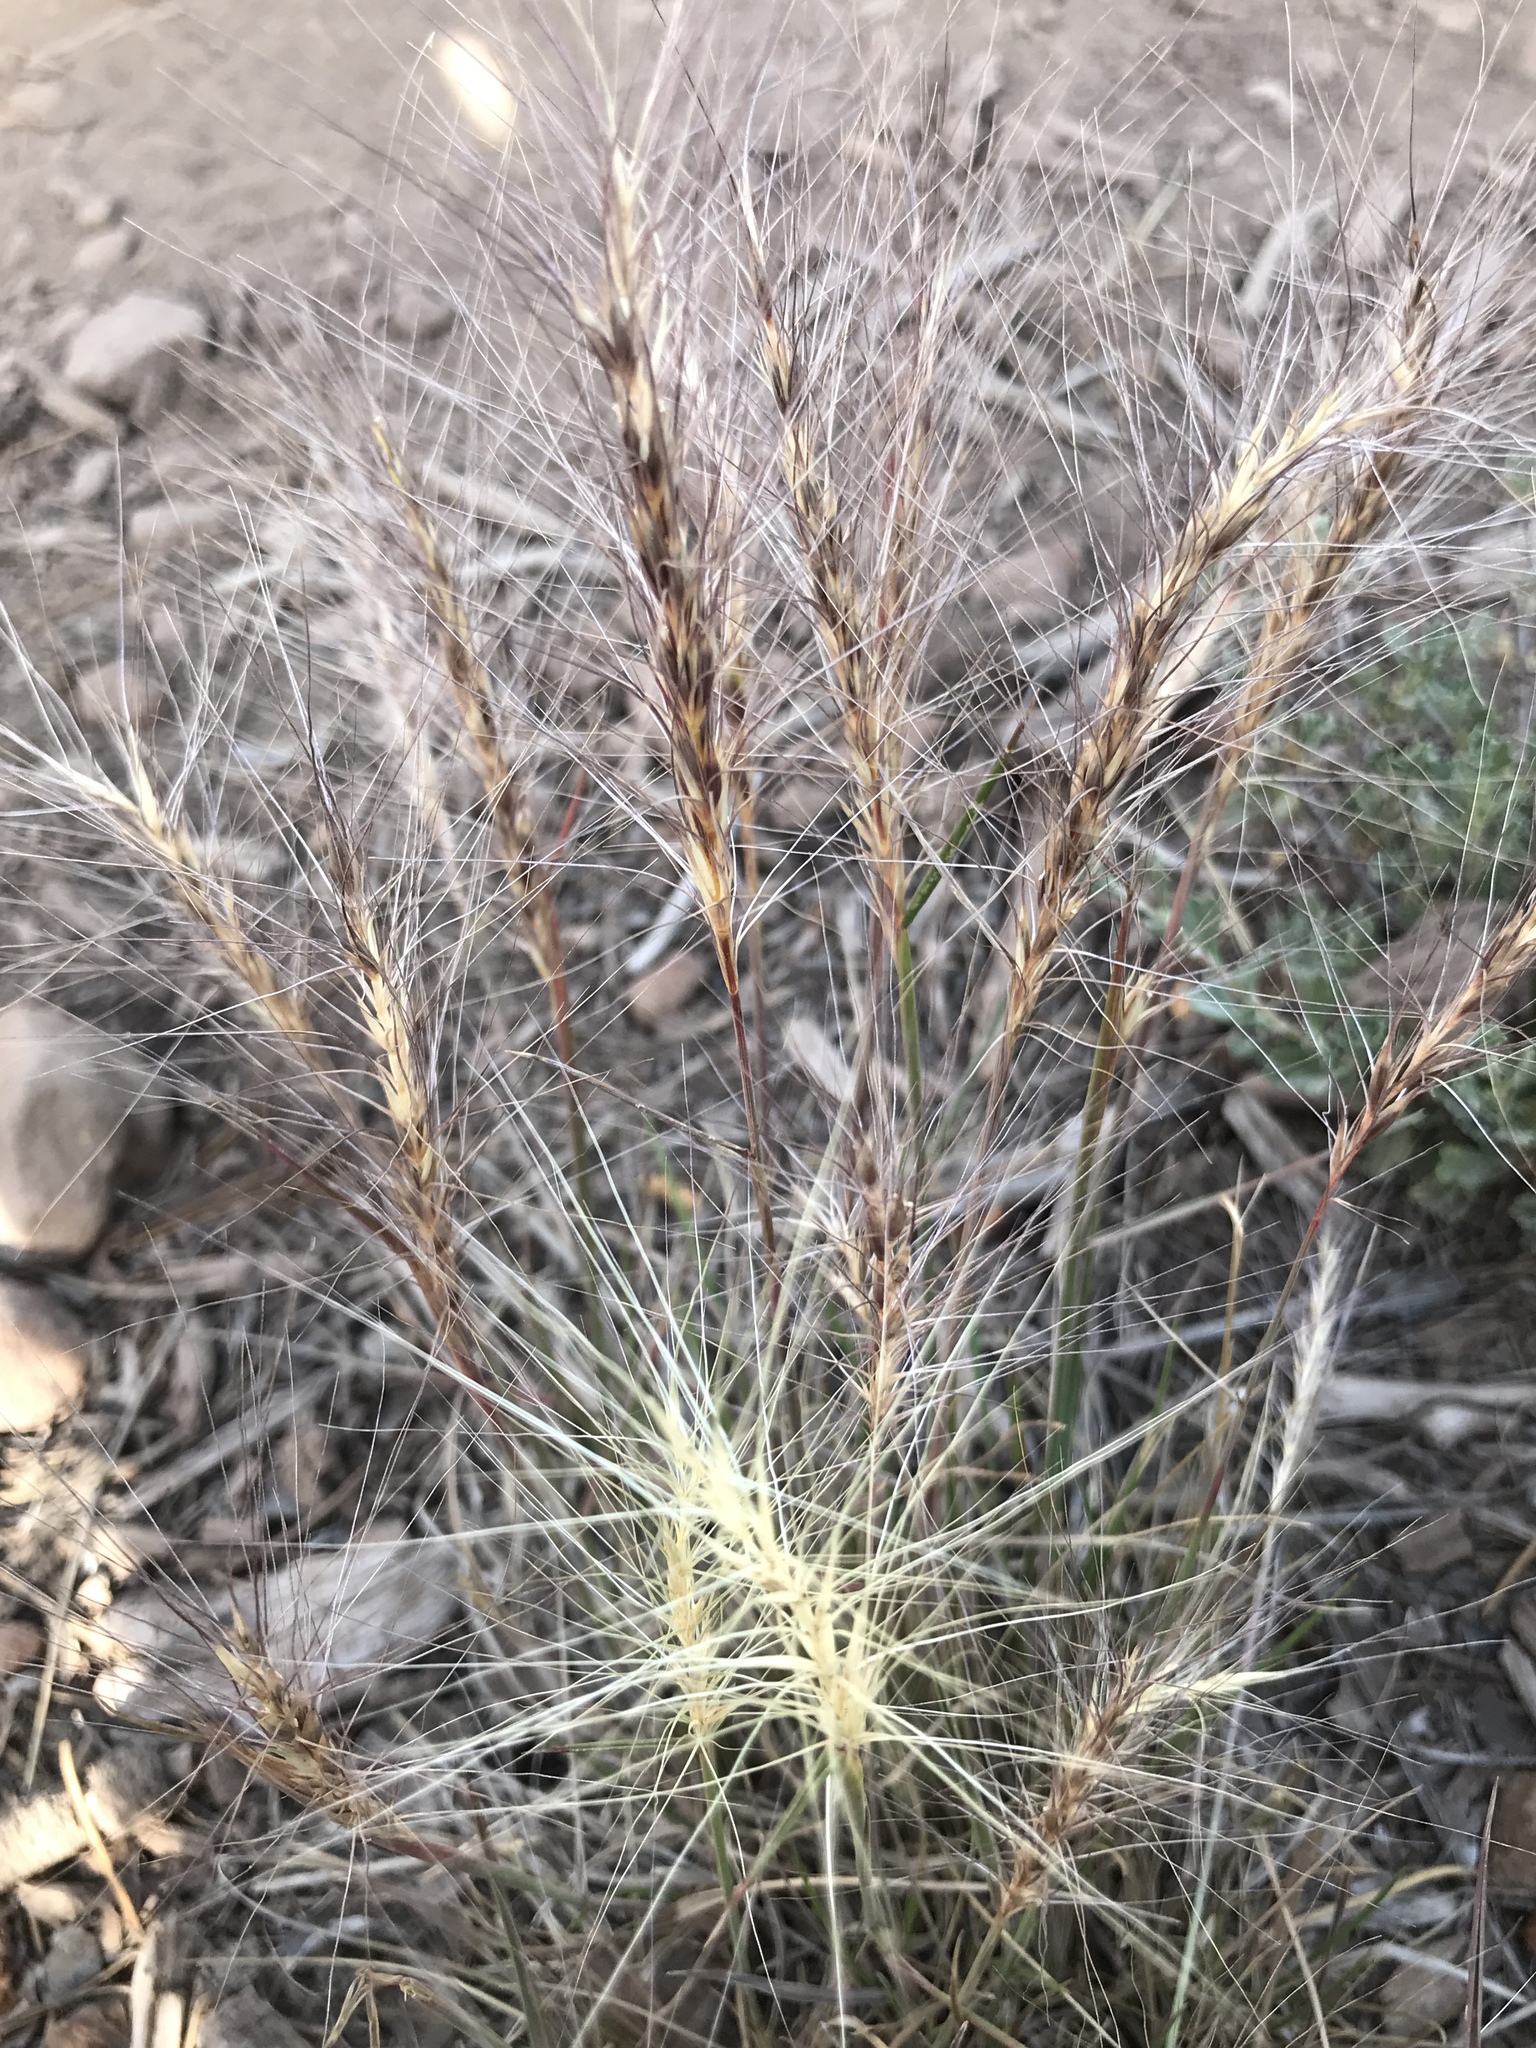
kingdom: Plantae
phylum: Tracheophyta
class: Liliopsida
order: Poales
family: Poaceae
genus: Elymus
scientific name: Elymus elymoides
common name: Bottlebrush squirreltail
